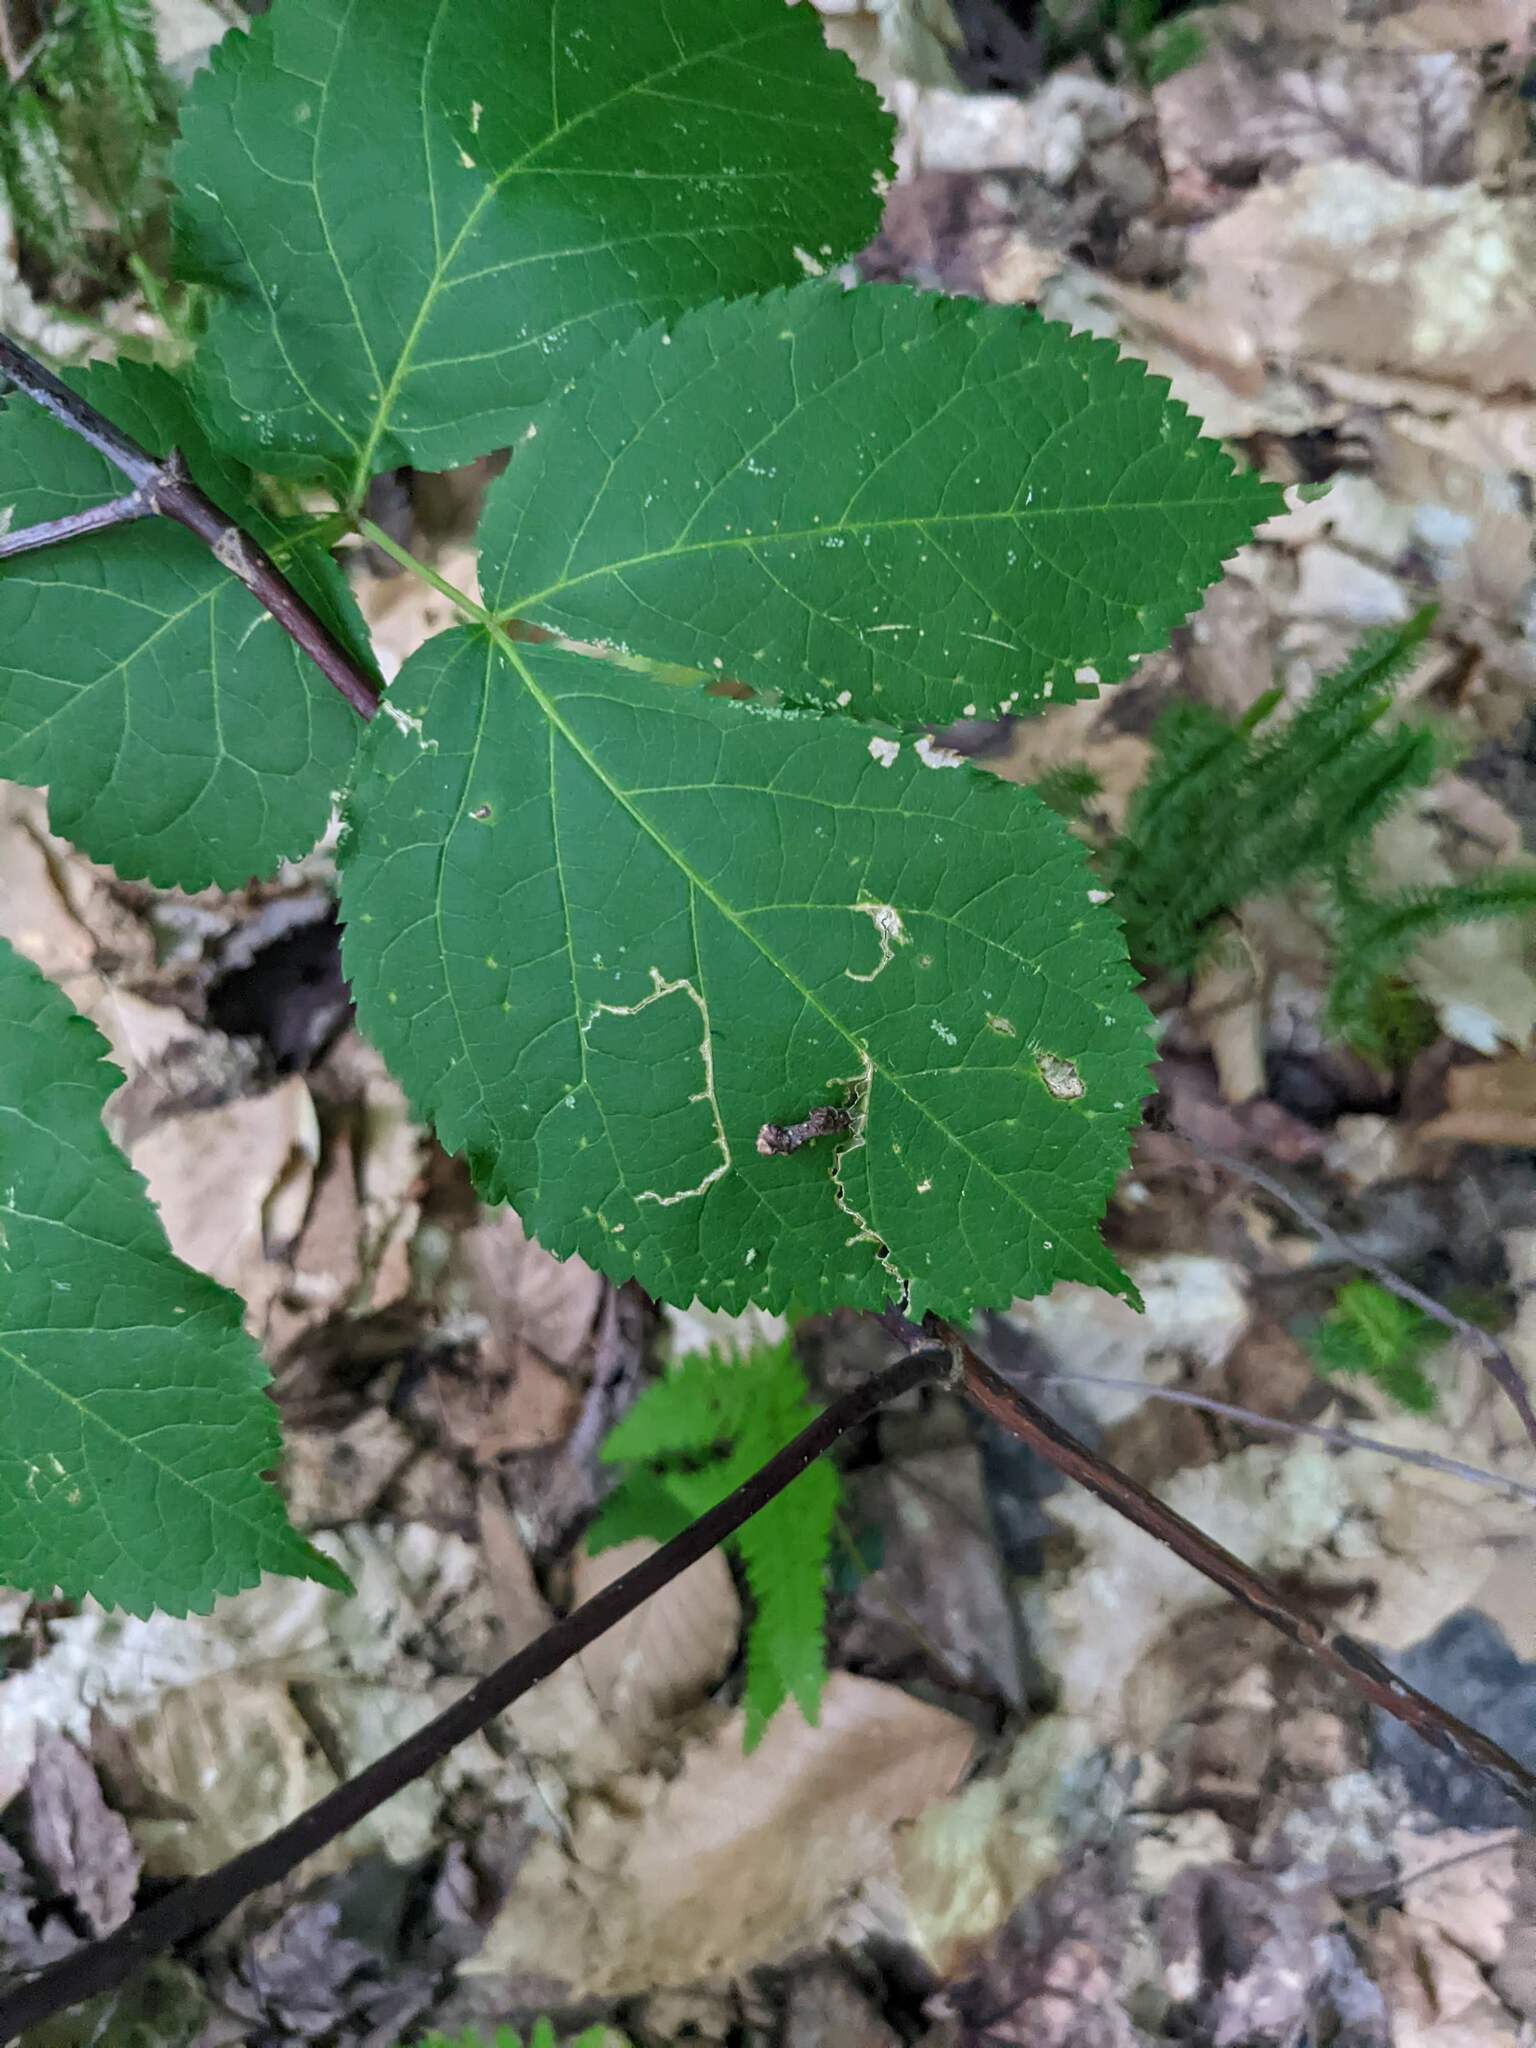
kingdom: Plantae
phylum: Tracheophyta
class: Magnoliopsida
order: Apiales
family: Araliaceae
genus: Aralia
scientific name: Aralia nudicaulis
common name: Wild sarsaparilla
